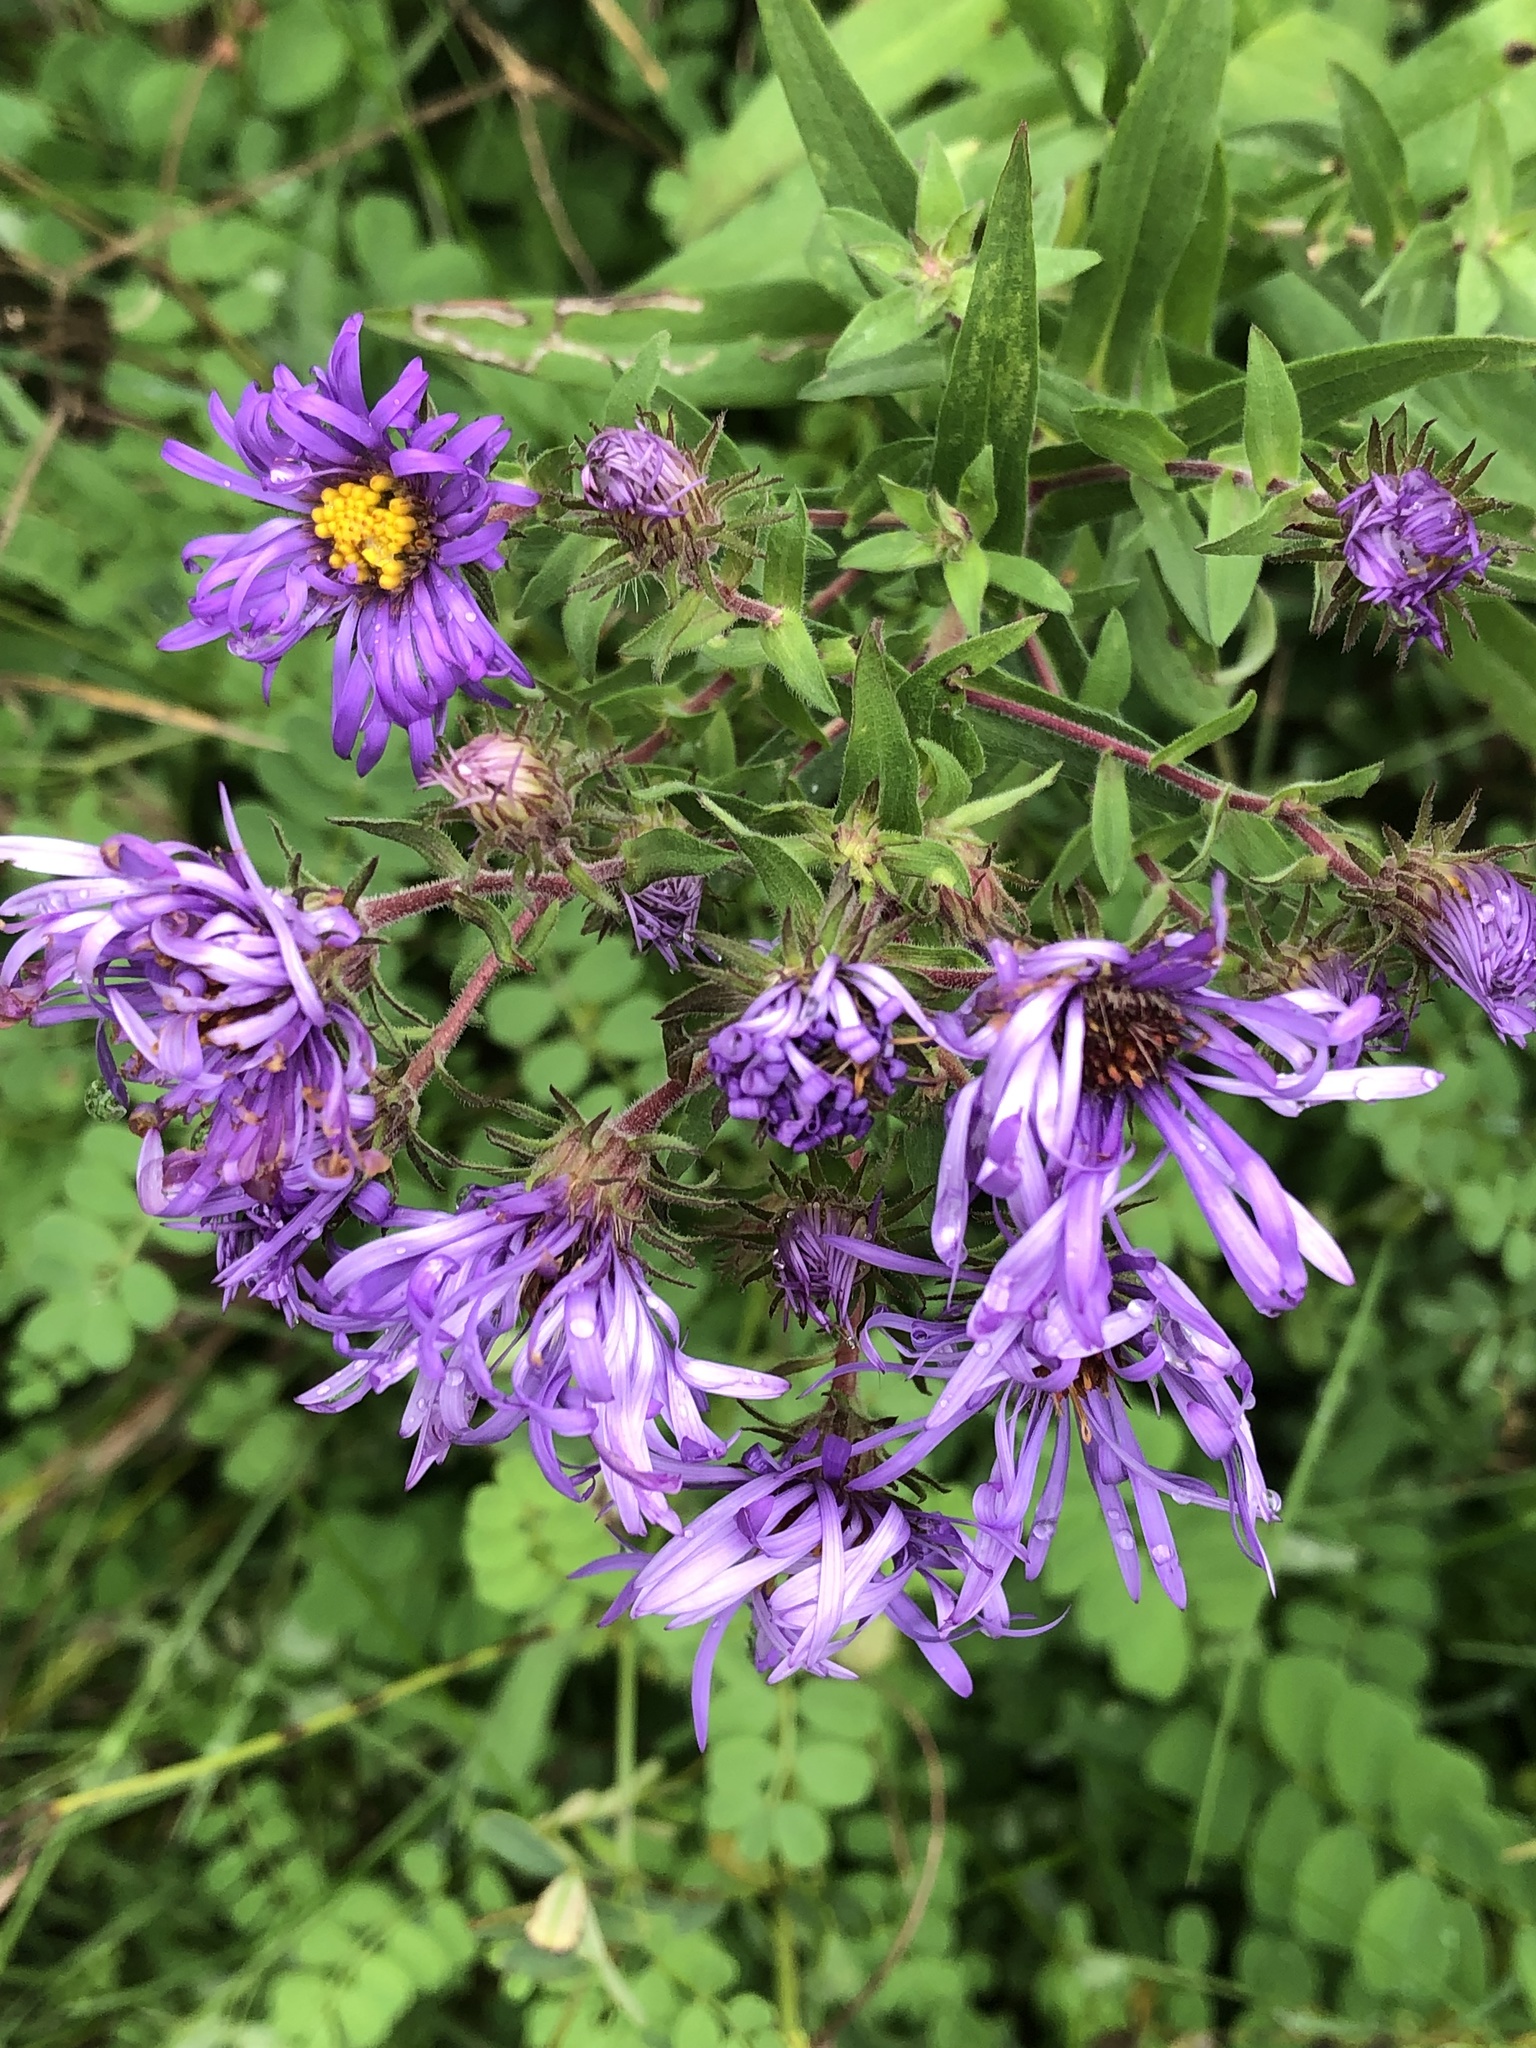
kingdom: Plantae
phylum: Tracheophyta
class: Magnoliopsida
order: Asterales
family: Asteraceae
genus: Symphyotrichum
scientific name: Symphyotrichum novae-angliae
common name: Michaelmas daisy
